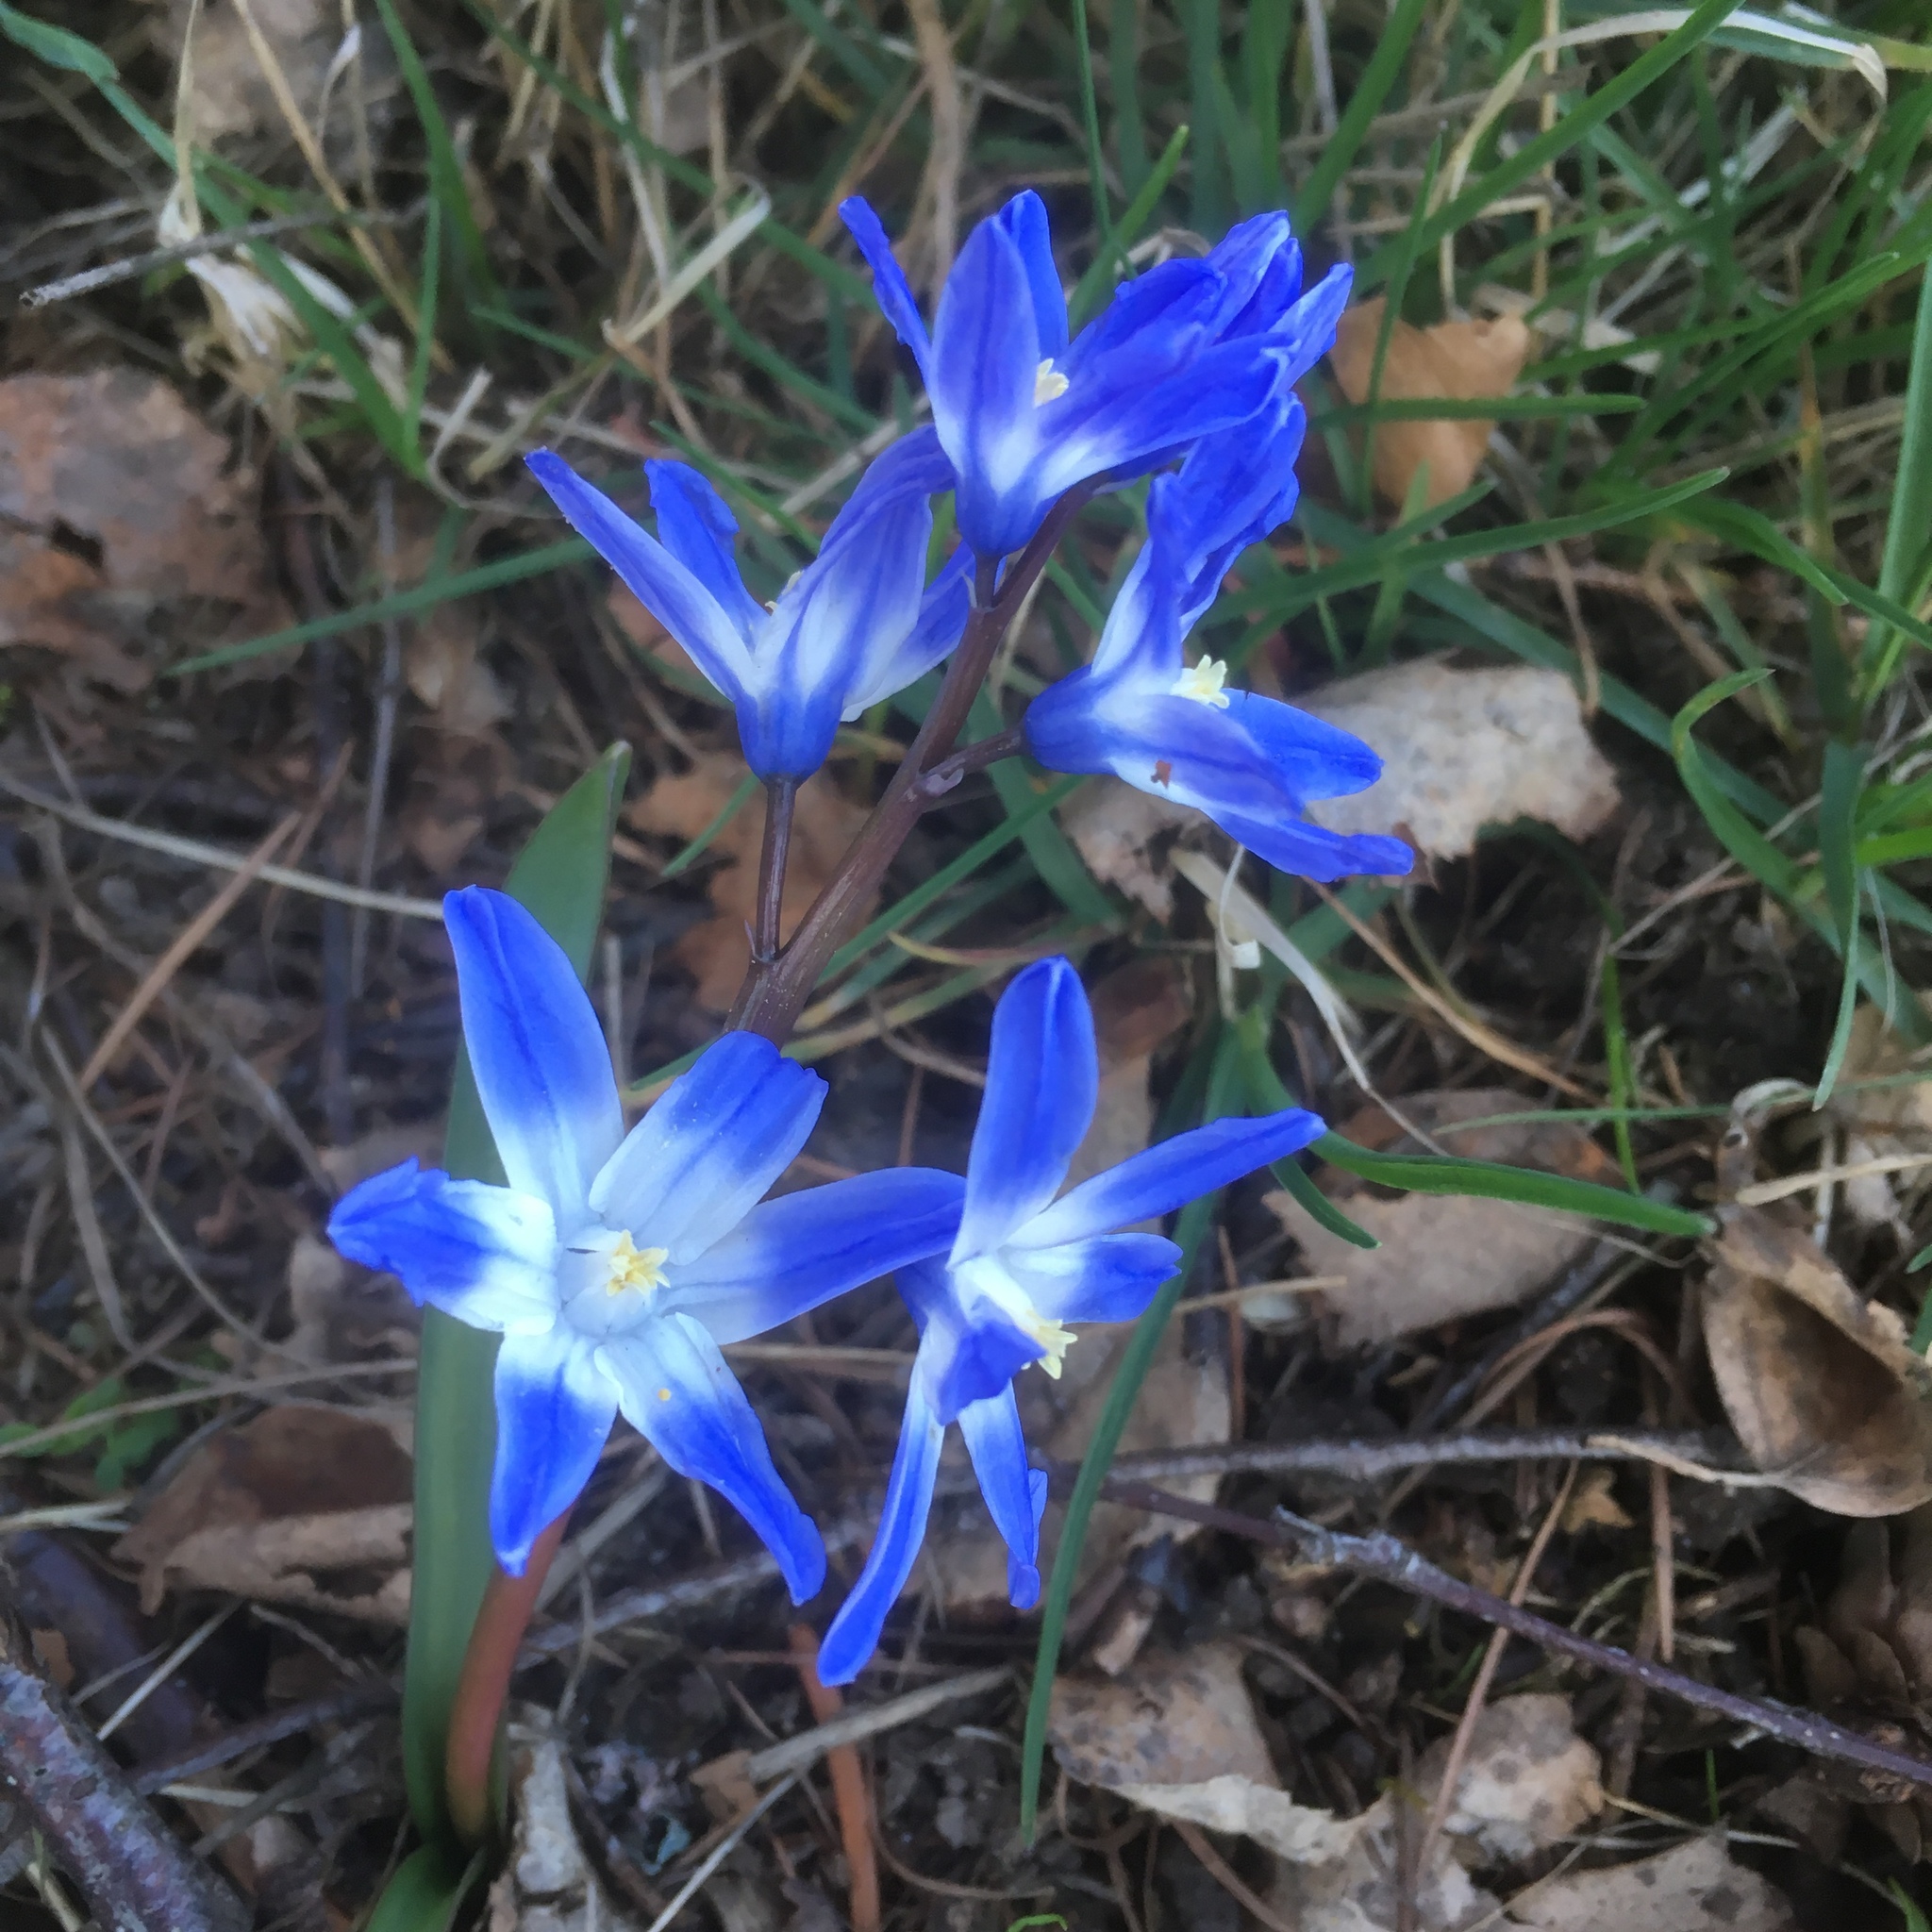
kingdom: Plantae
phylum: Tracheophyta
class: Liliopsida
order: Asparagales
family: Asparagaceae
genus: Scilla
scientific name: Scilla forbesii
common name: Glory-of-the-snow
